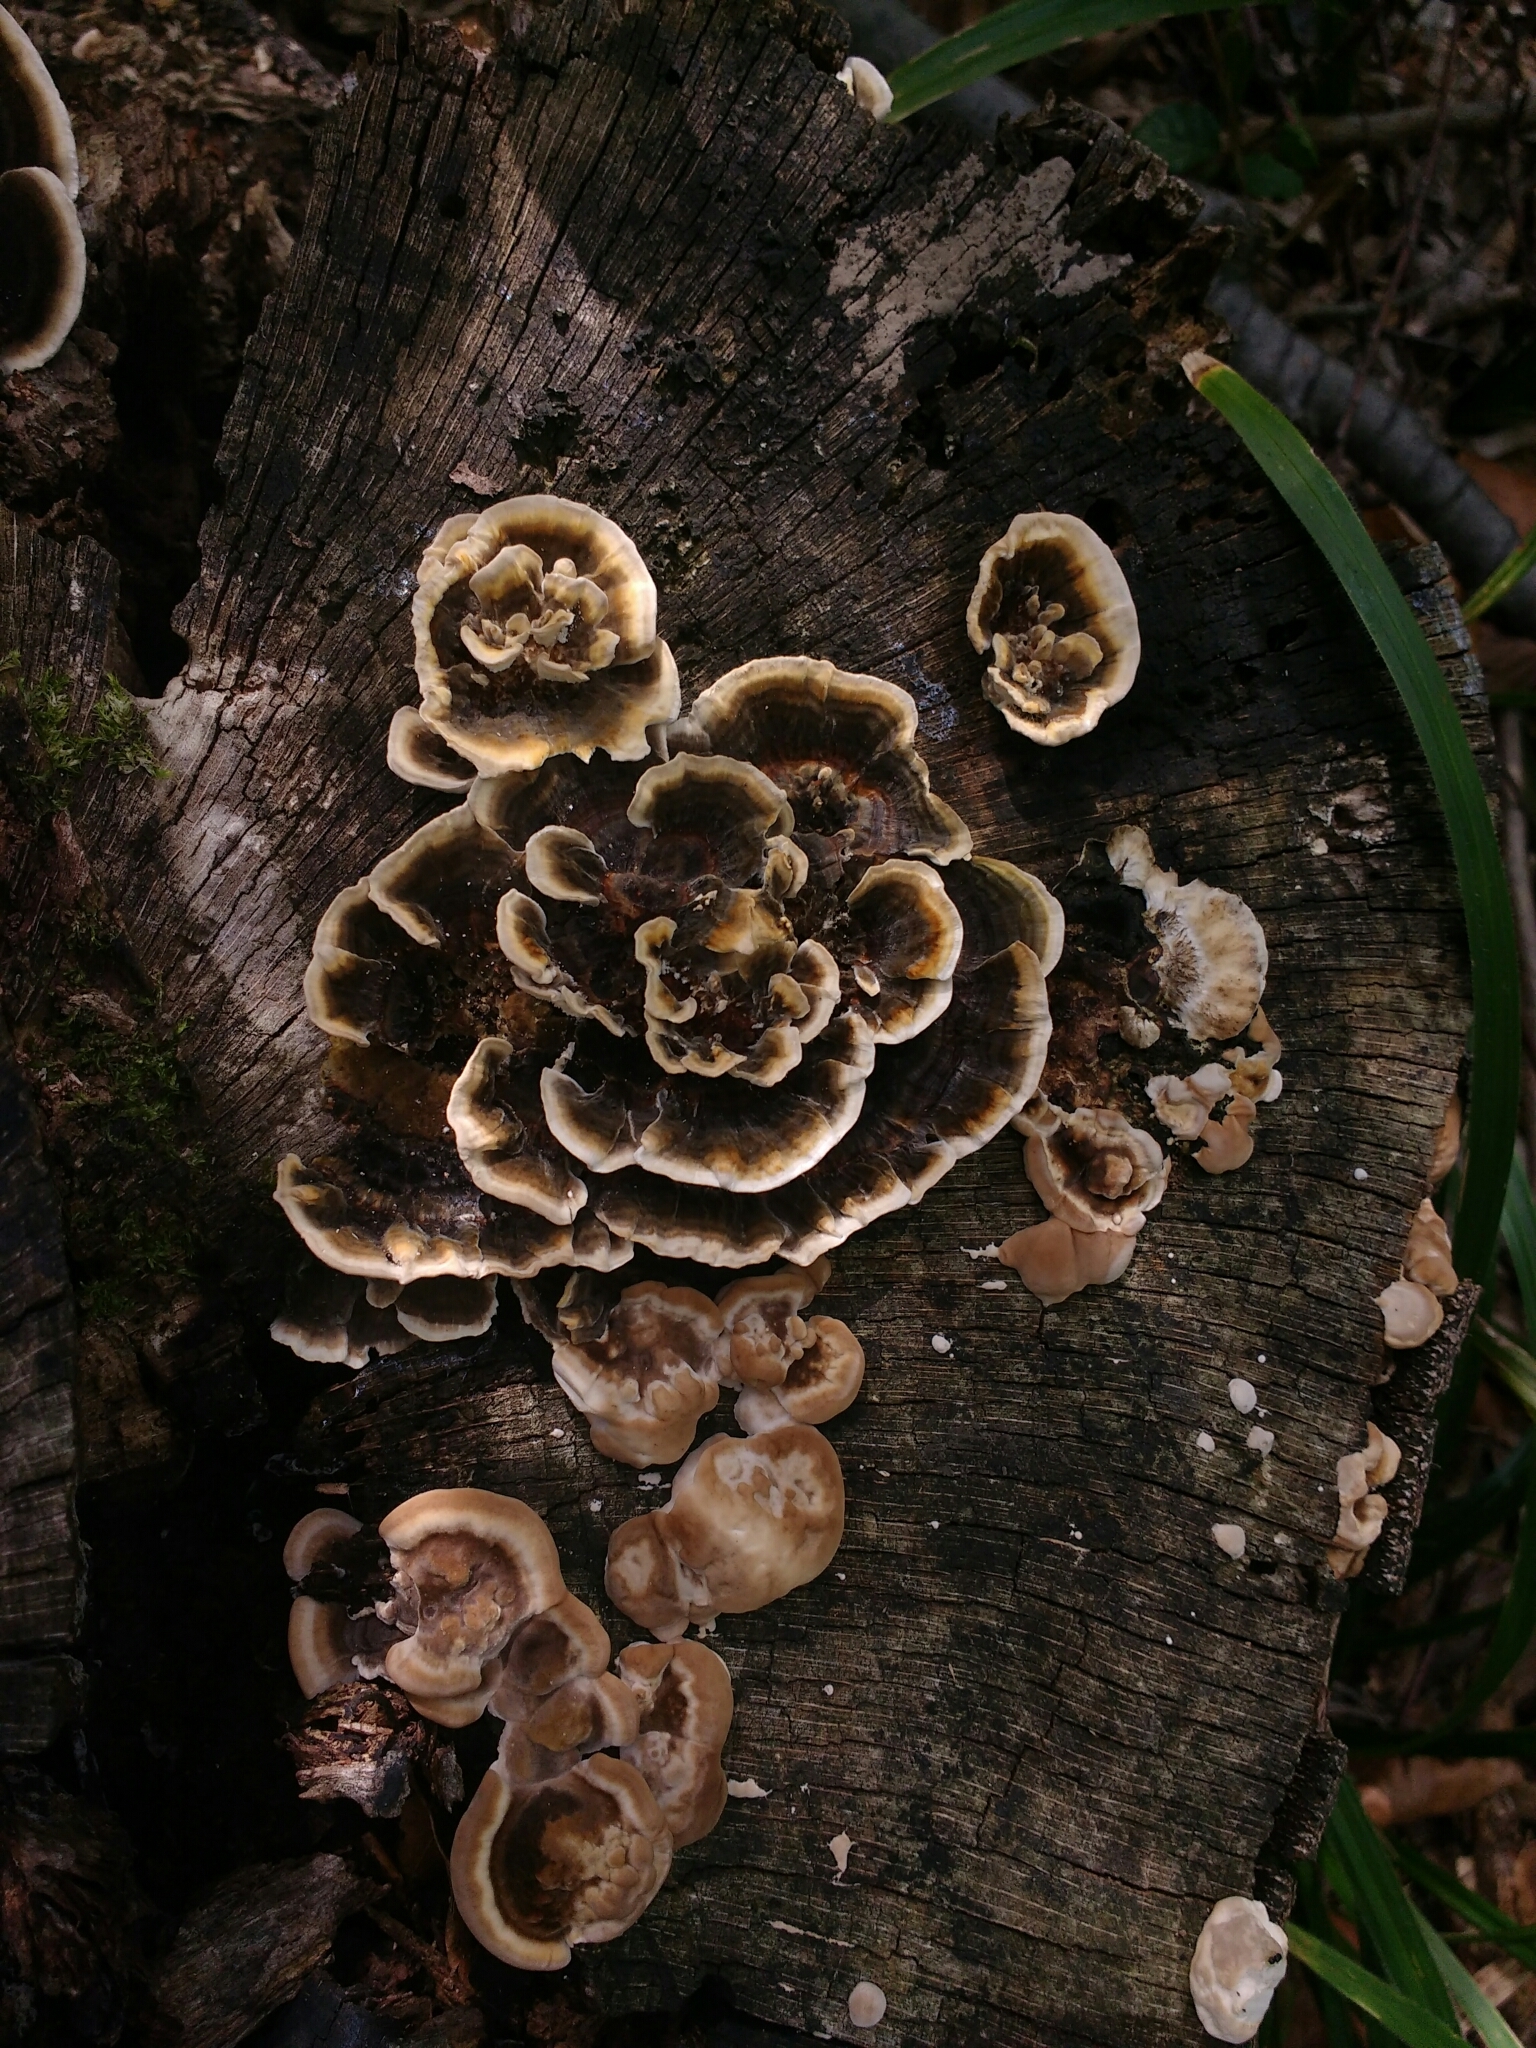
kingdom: Fungi
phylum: Basidiomycota
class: Agaricomycetes
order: Polyporales
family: Polyporaceae
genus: Trametes
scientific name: Trametes versicolor
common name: Turkeytail
